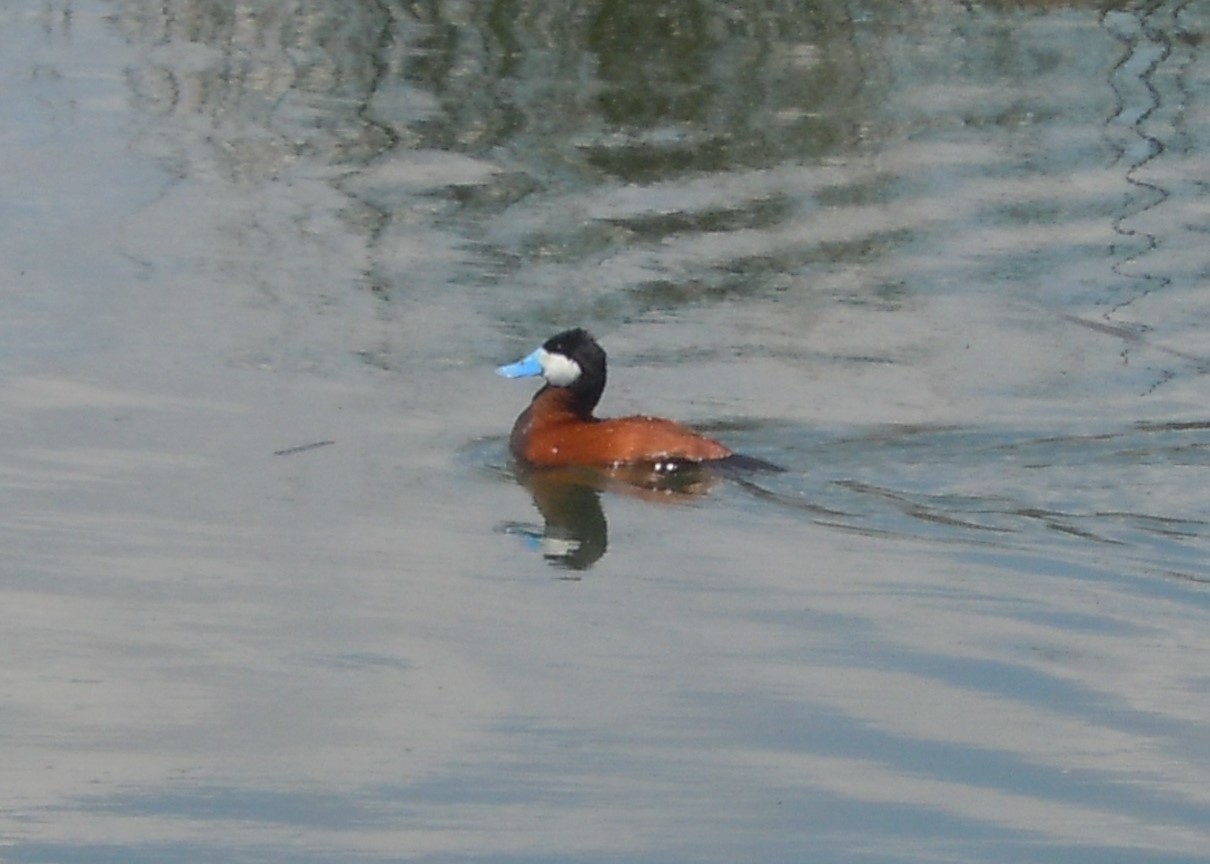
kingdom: Animalia
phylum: Chordata
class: Aves
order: Anseriformes
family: Anatidae
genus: Oxyura
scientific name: Oxyura jamaicensis
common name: Ruddy duck
